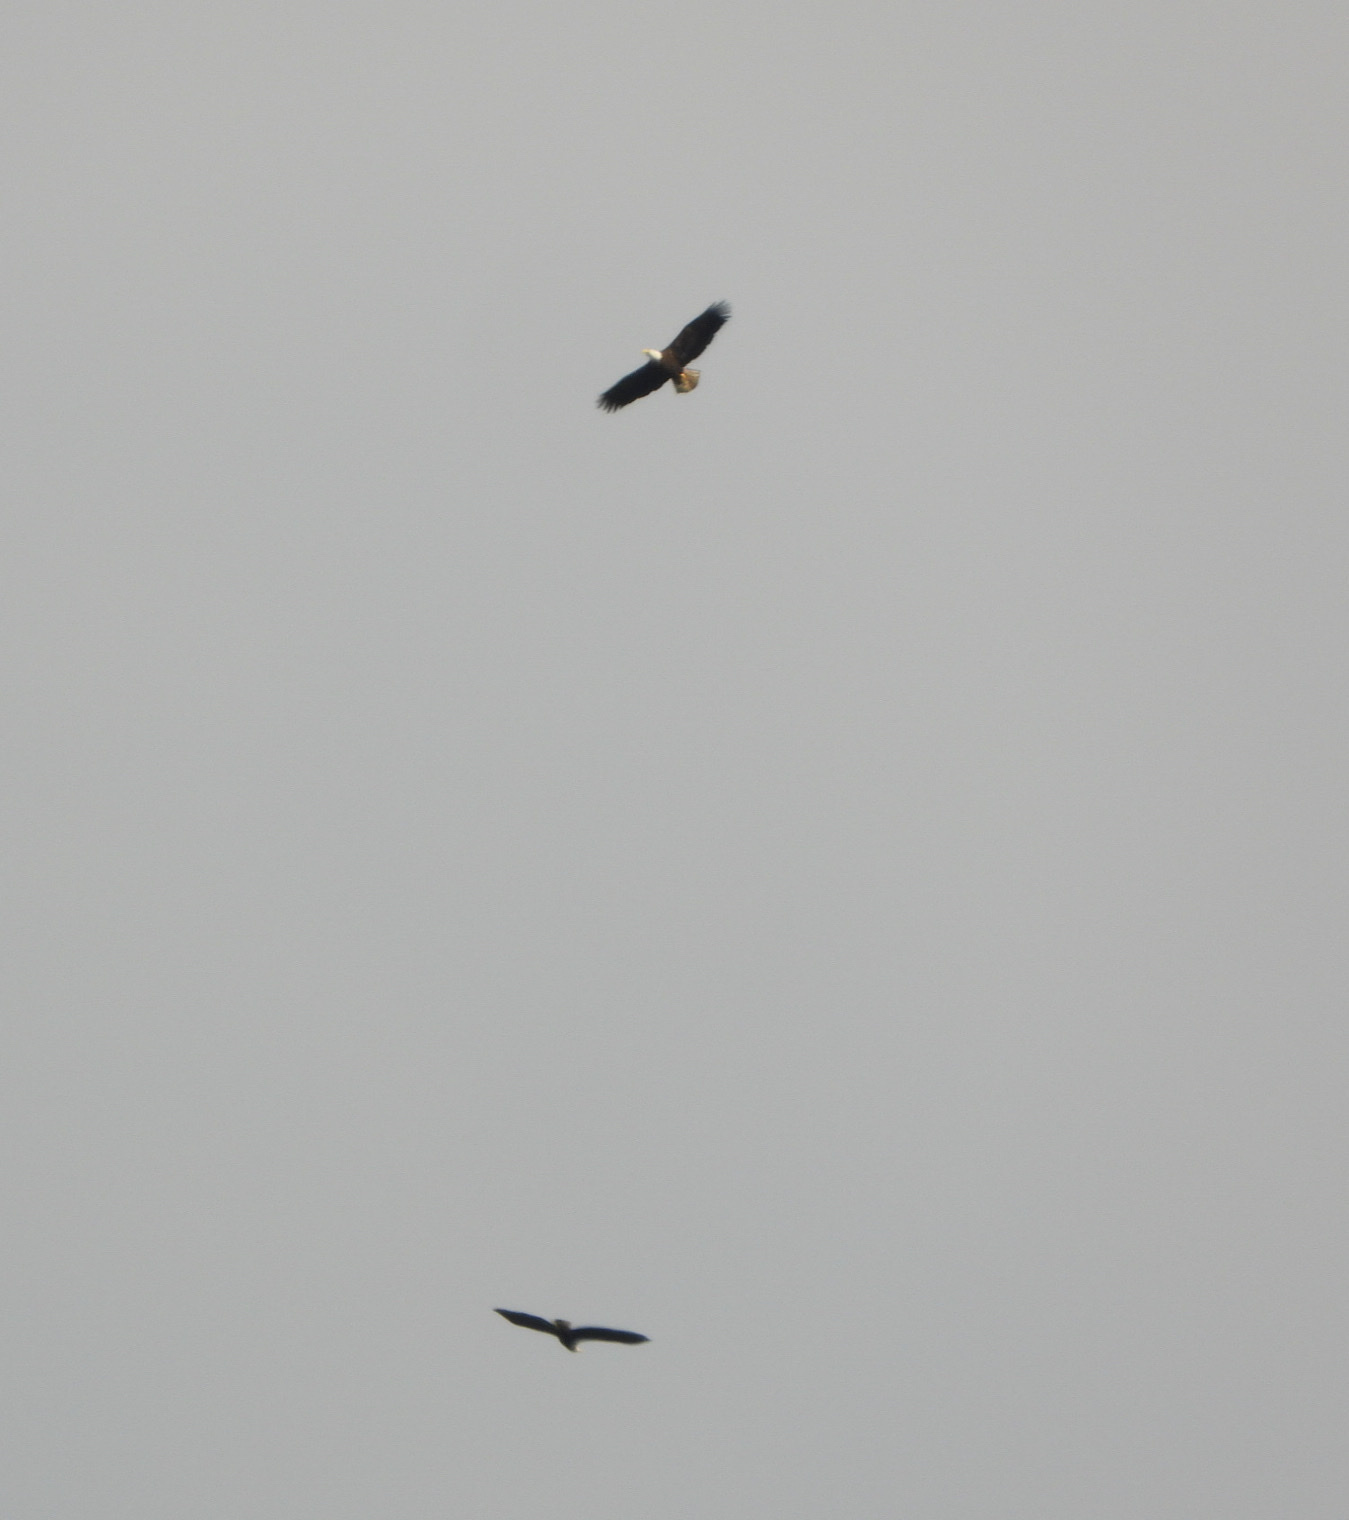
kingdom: Animalia
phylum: Chordata
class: Aves
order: Accipitriformes
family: Accipitridae
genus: Haliaeetus
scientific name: Haliaeetus leucocephalus
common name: Bald eagle
